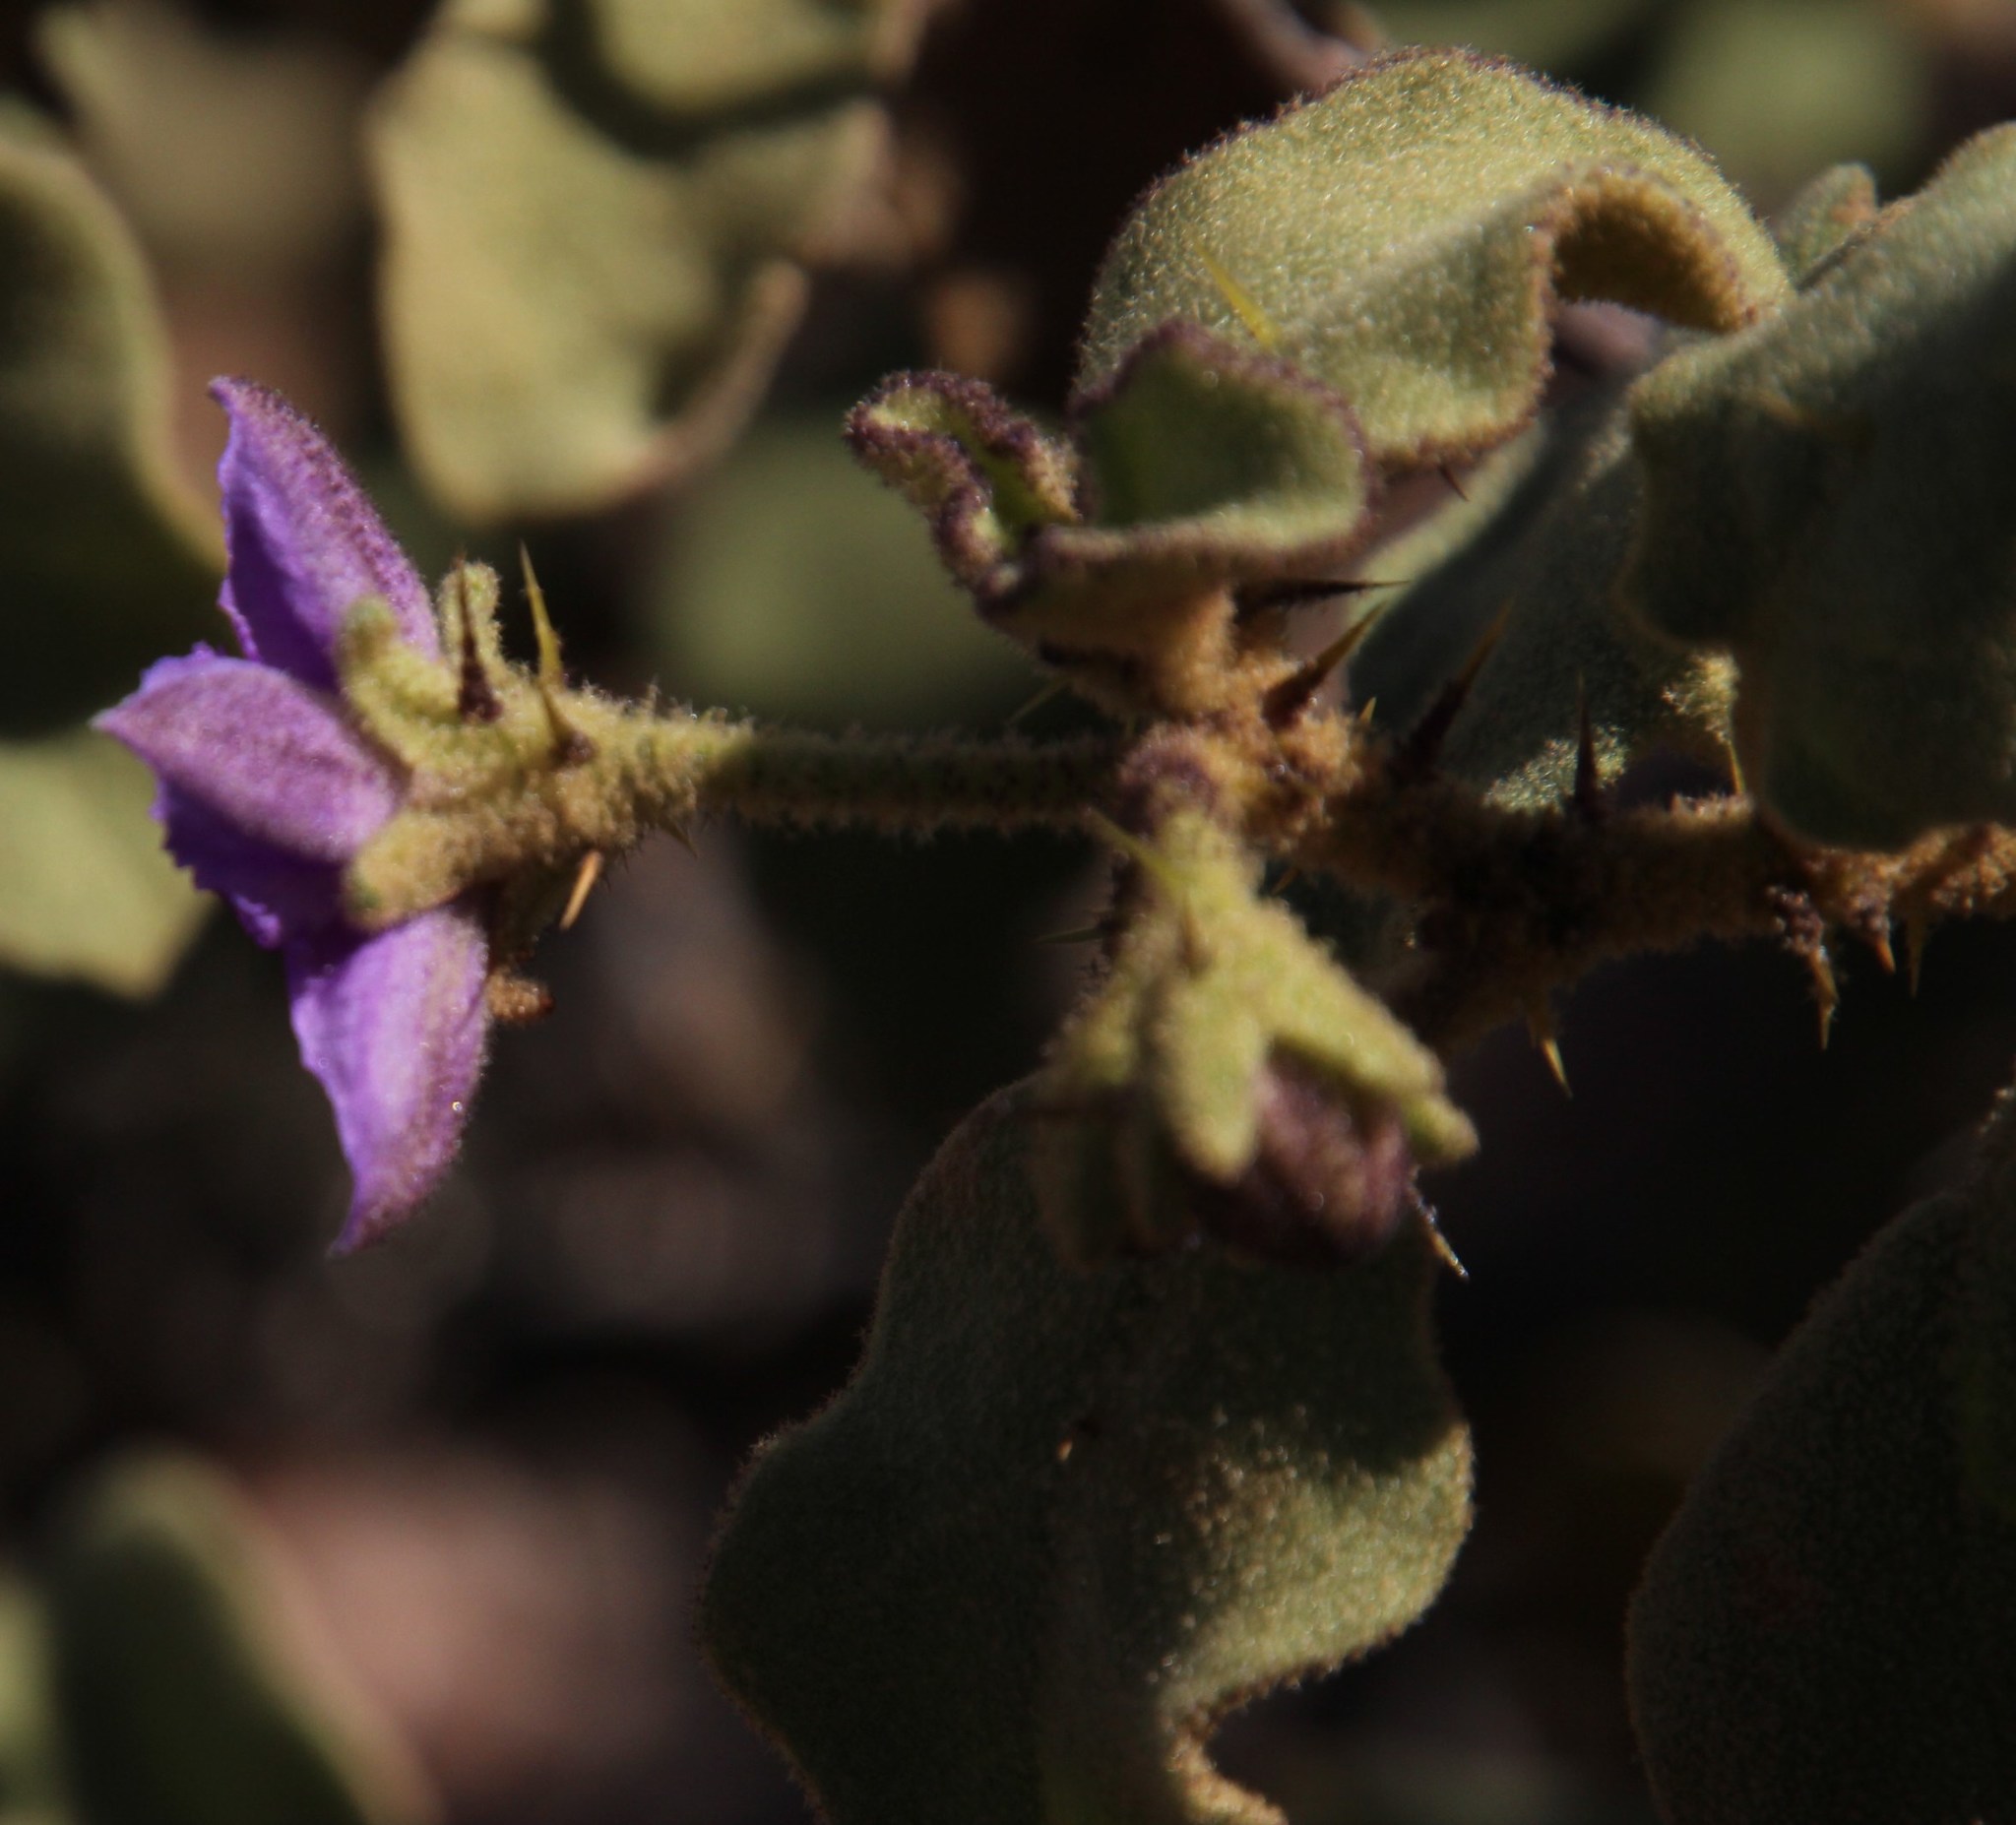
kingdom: Plantae
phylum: Tracheophyta
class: Magnoliopsida
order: Solanales
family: Solanaceae
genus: Solanum
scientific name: Solanum tomentosum
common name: Wild aubergine
